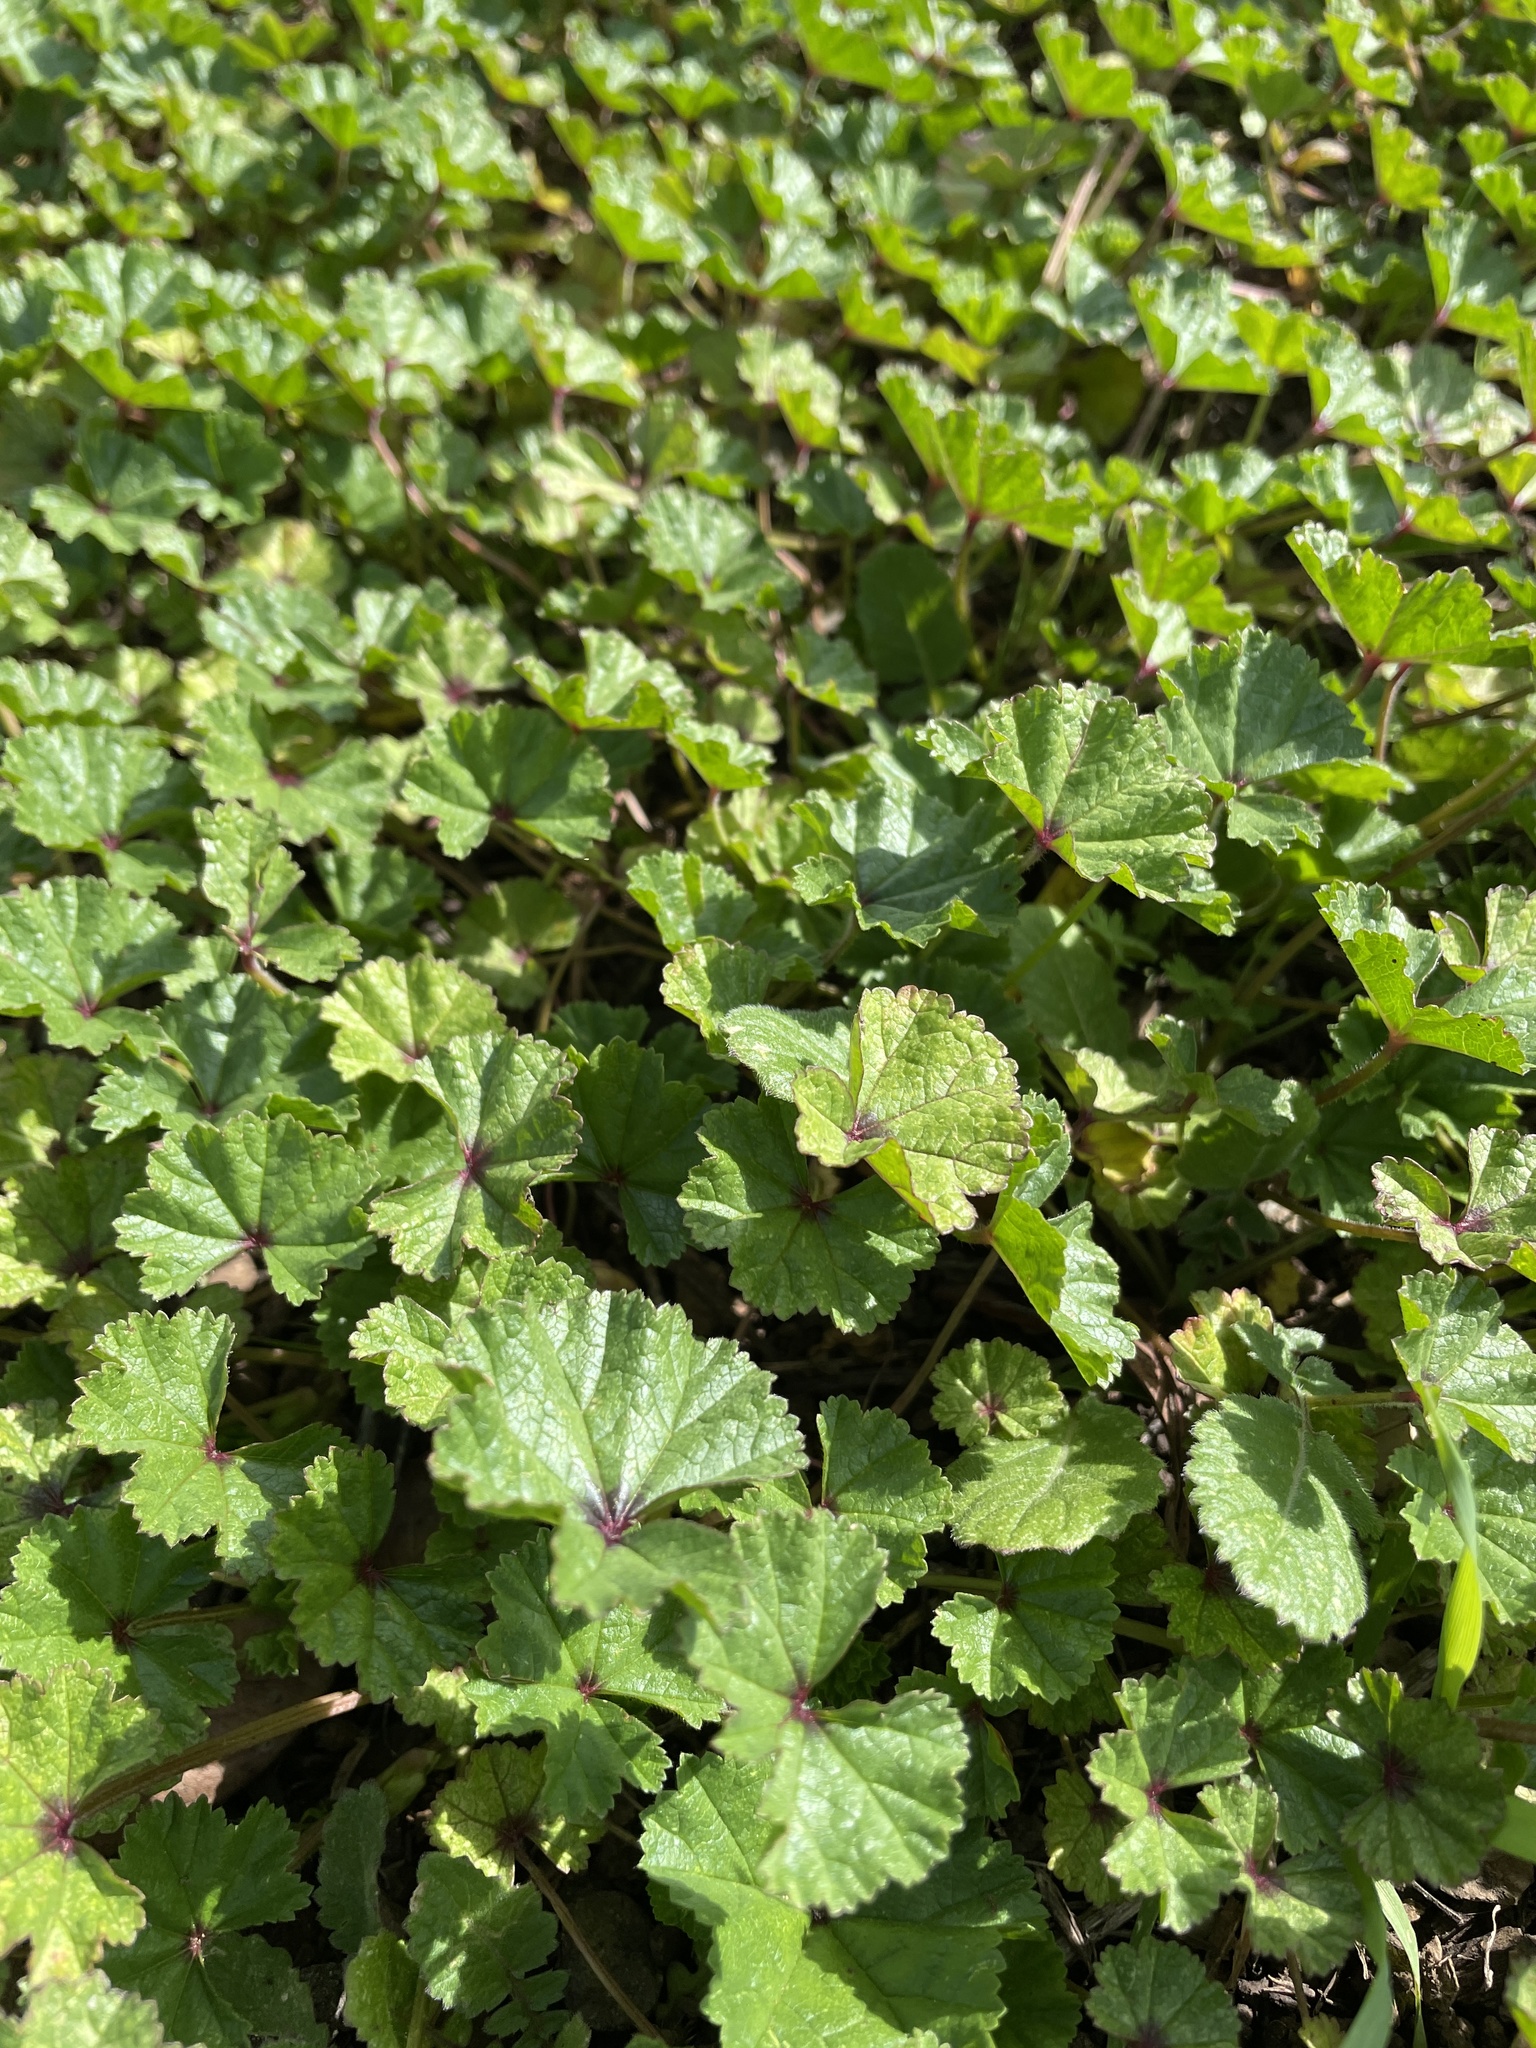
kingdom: Plantae
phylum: Tracheophyta
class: Magnoliopsida
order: Malvales
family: Malvaceae
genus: Malva
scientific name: Malva
